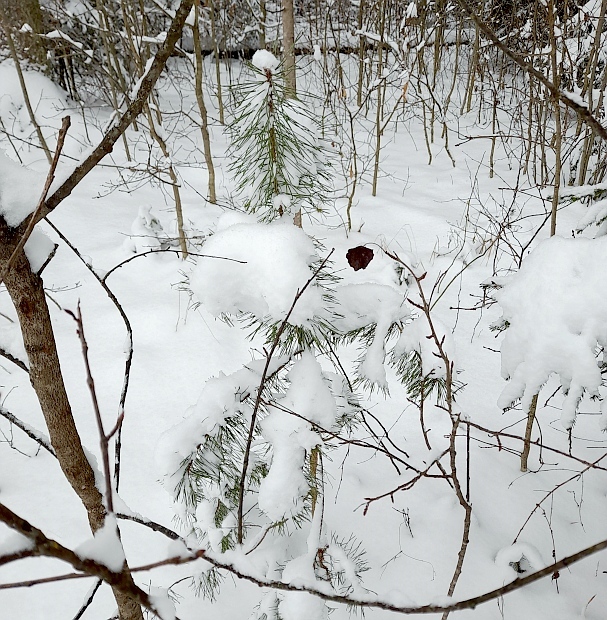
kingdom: Plantae
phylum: Tracheophyta
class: Pinopsida
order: Pinales
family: Pinaceae
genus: Pinus
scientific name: Pinus sylvestris
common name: Scots pine
